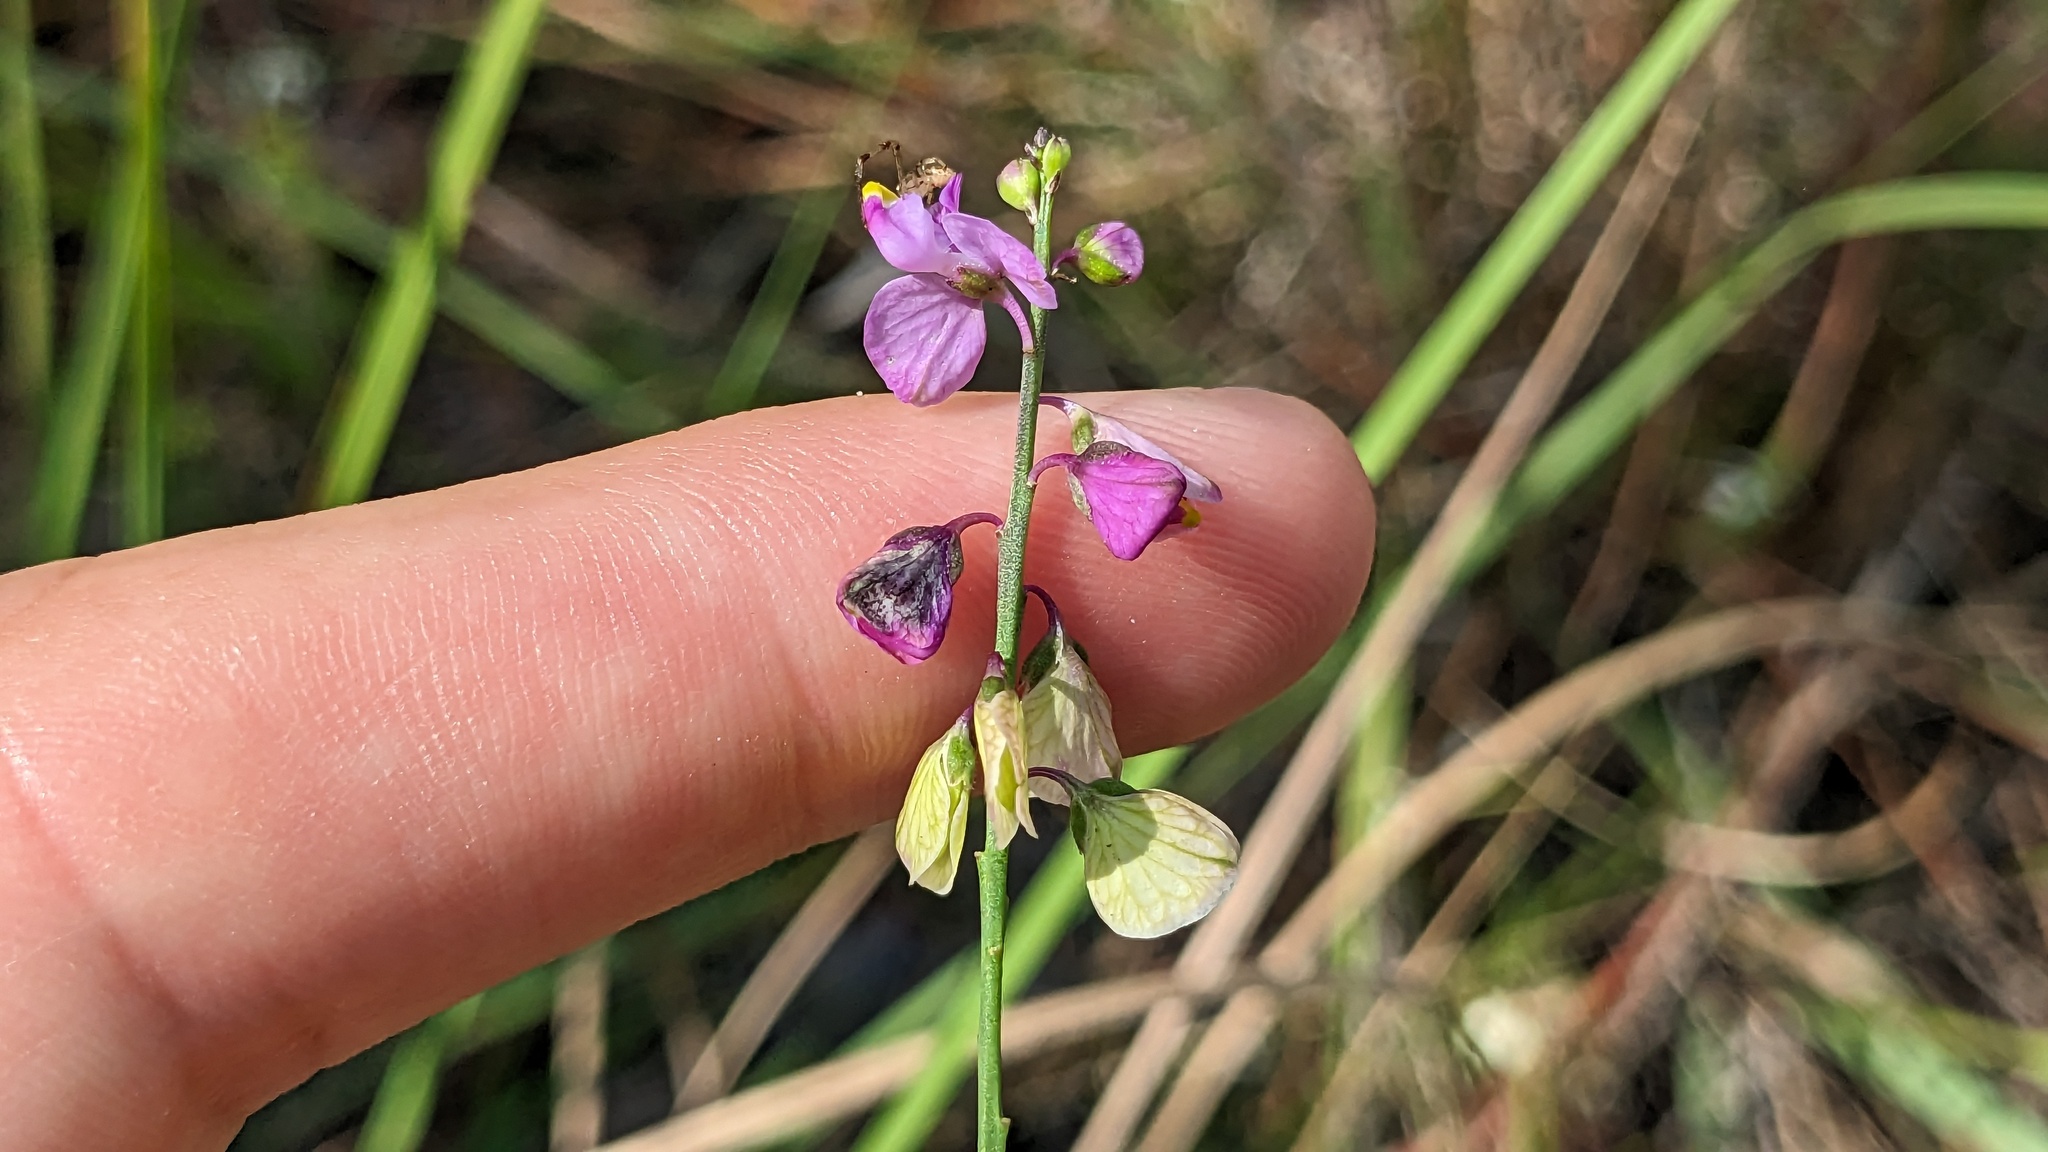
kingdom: Plantae
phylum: Tracheophyta
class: Magnoliopsida
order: Fabales
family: Polygalaceae
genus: Asemeia
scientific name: Asemeia grandiflora
